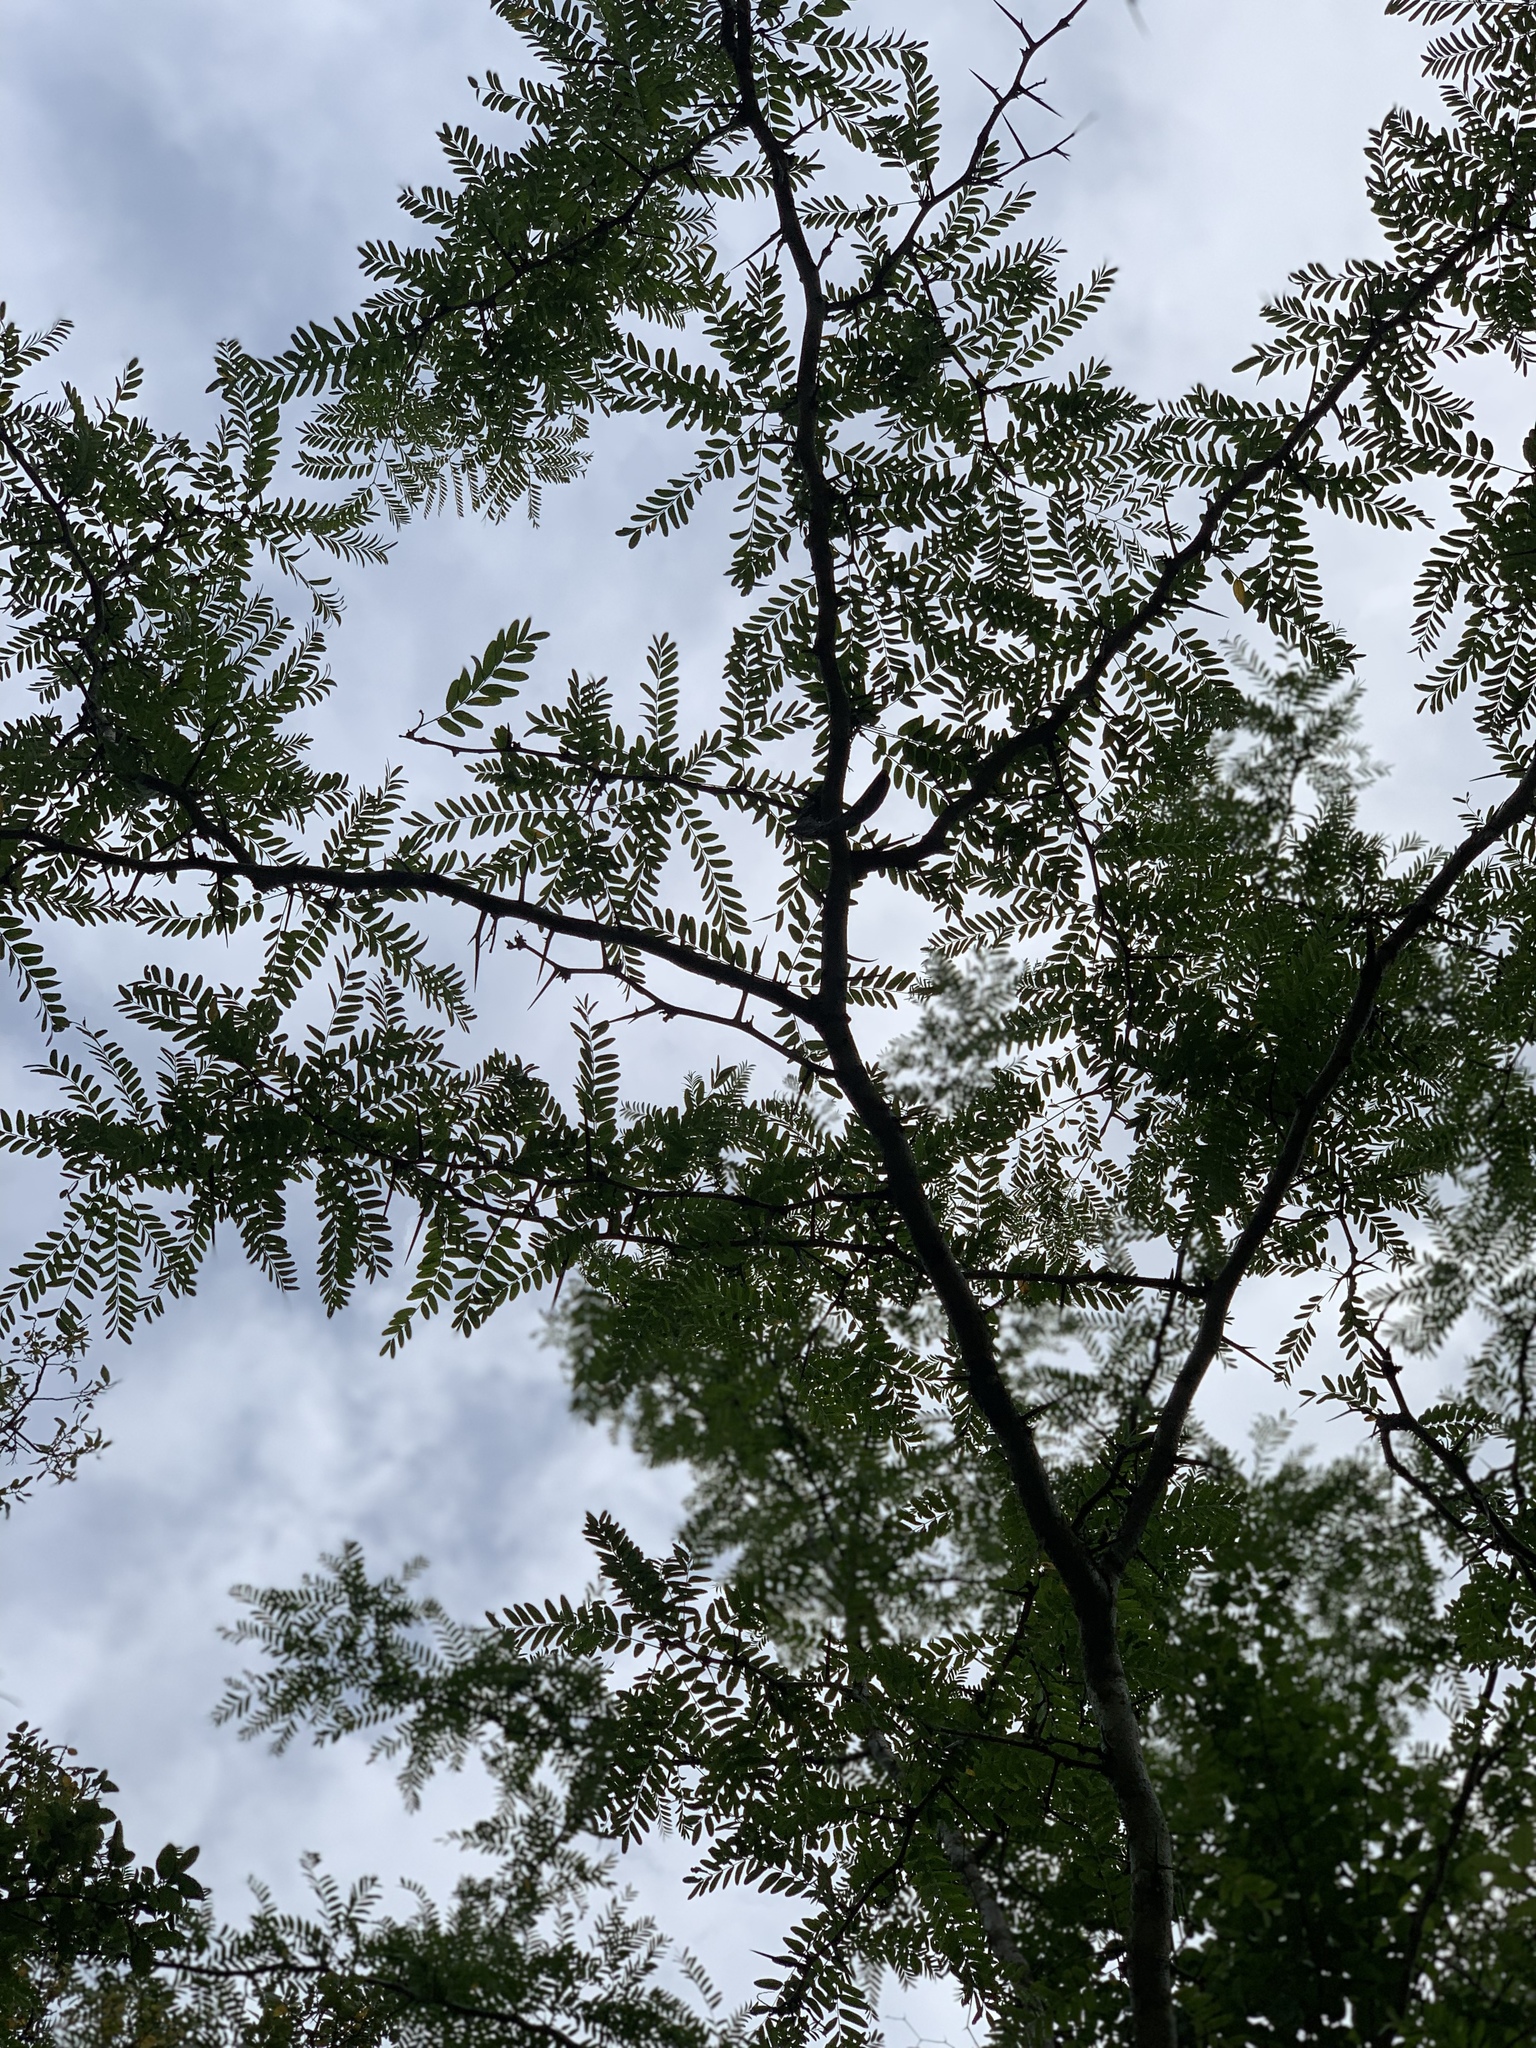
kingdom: Plantae
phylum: Tracheophyta
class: Magnoliopsida
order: Fabales
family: Fabaceae
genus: Gleditsia
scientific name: Gleditsia triacanthos
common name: Common honeylocust
